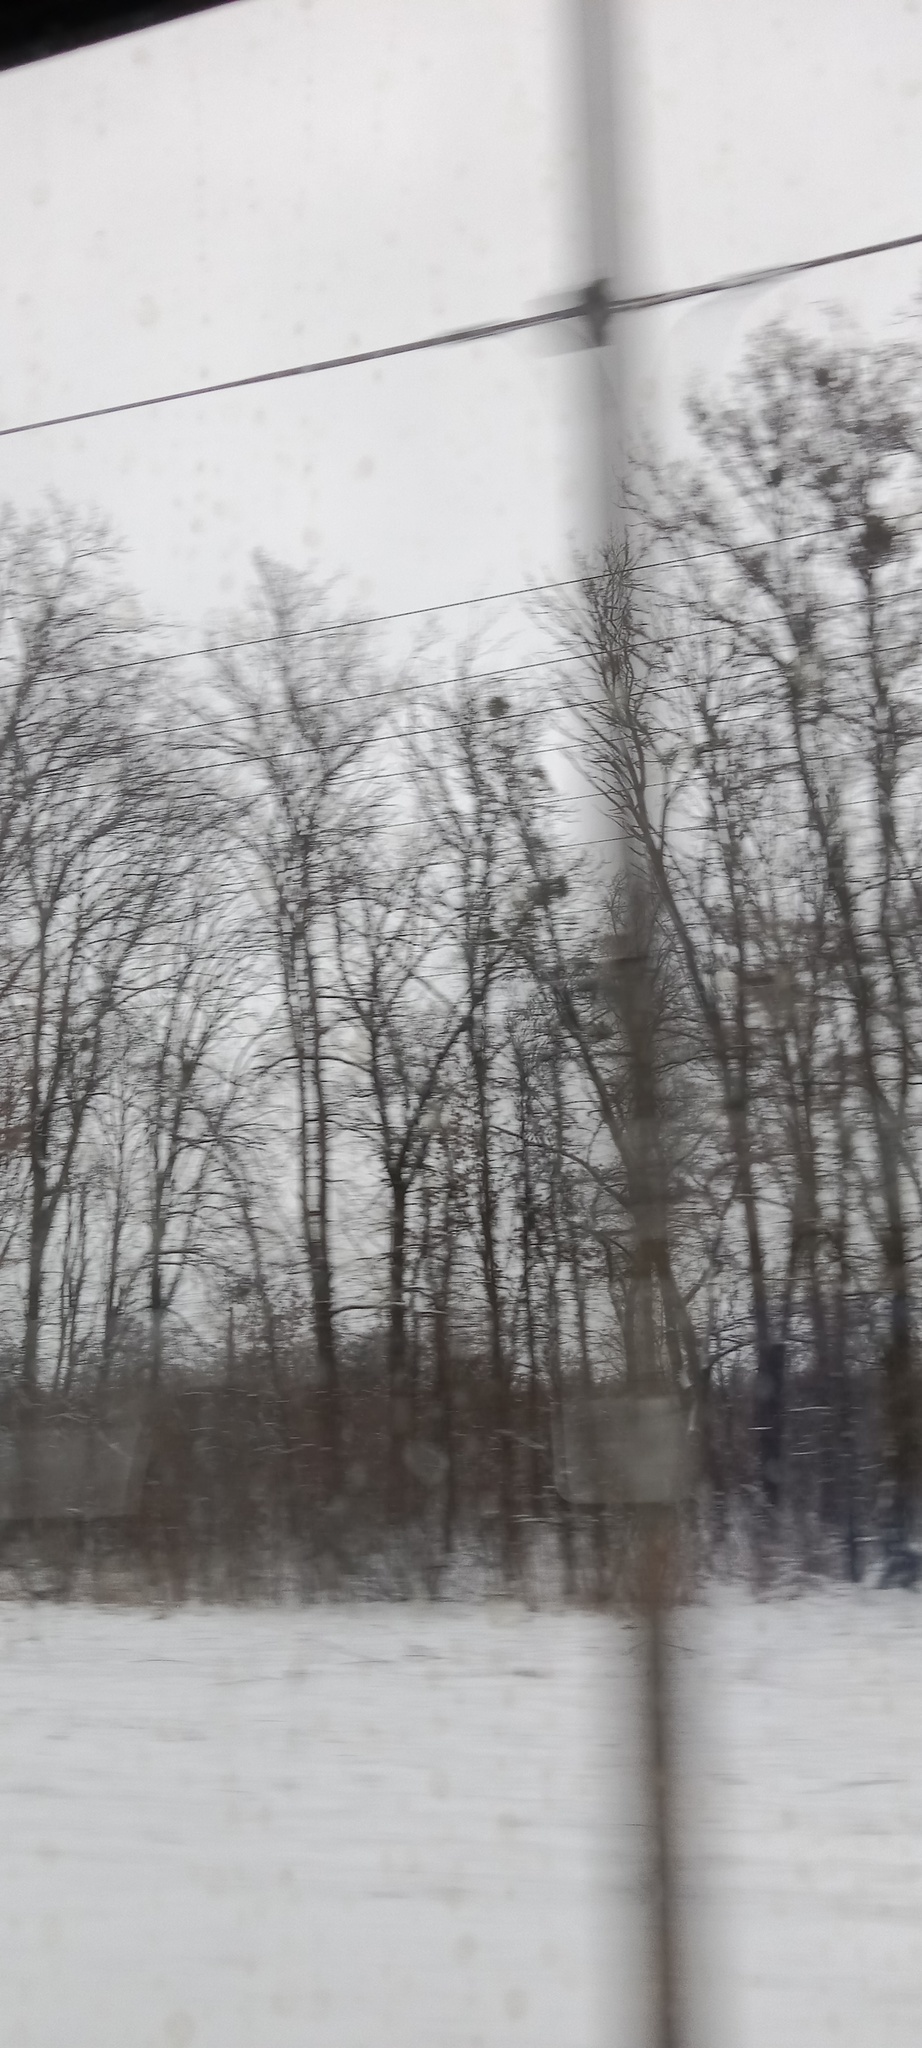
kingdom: Plantae
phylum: Tracheophyta
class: Magnoliopsida
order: Santalales
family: Viscaceae
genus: Viscum
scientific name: Viscum album
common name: Mistletoe
